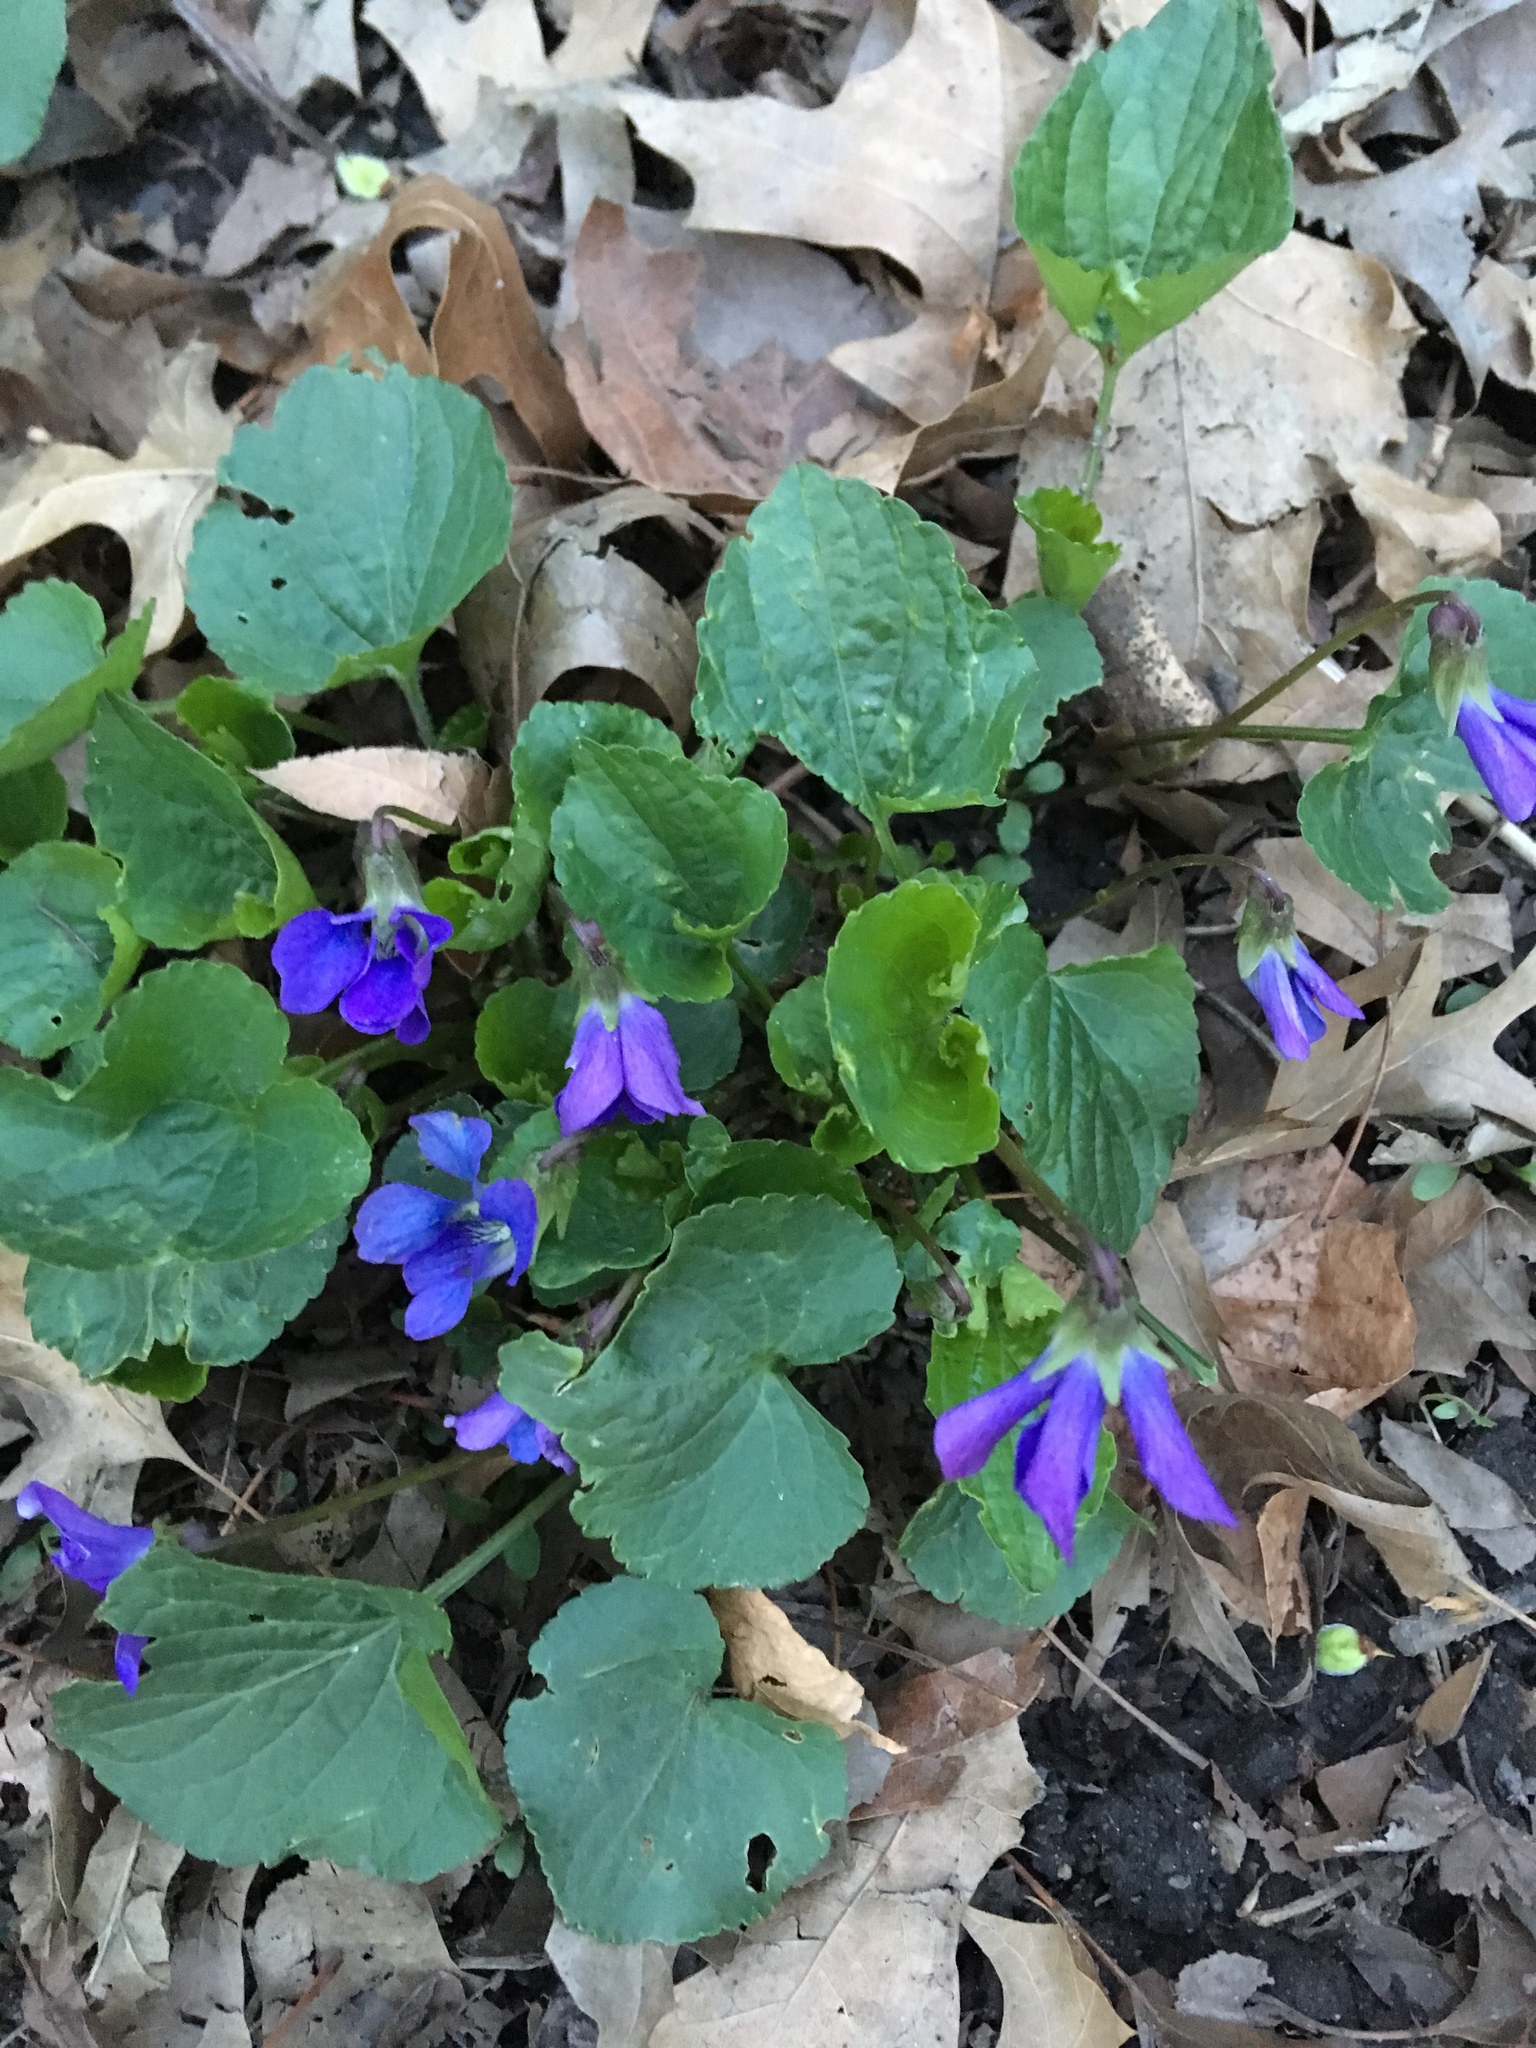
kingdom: Plantae
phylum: Tracheophyta
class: Magnoliopsida
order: Malpighiales
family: Violaceae
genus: Viola
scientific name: Viola sororia
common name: Dooryard violet
